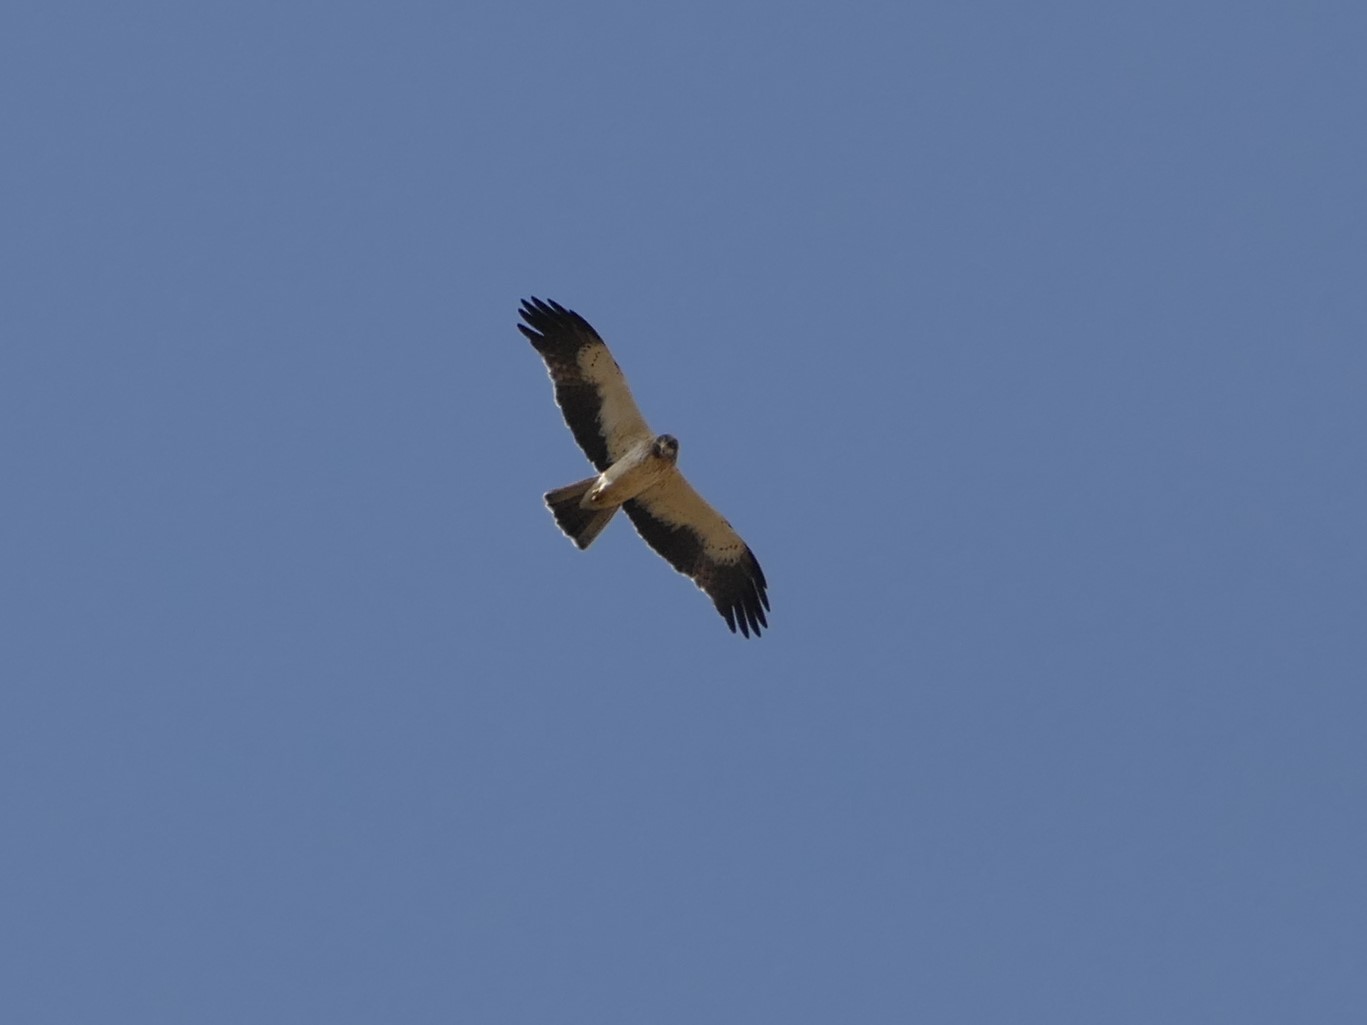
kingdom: Animalia
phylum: Chordata
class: Aves
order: Accipitriformes
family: Accipitridae
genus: Hieraaetus
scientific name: Hieraaetus pennatus
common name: Booted eagle
